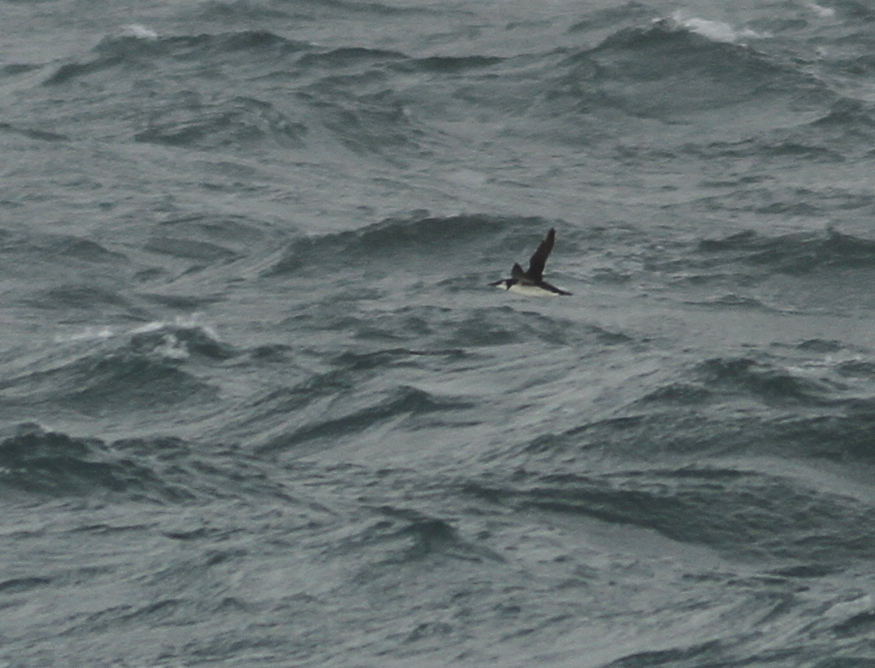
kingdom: Animalia
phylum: Chordata
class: Aves
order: Charadriiformes
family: Alcidae
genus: Uria
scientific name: Uria aalge
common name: Common murre
